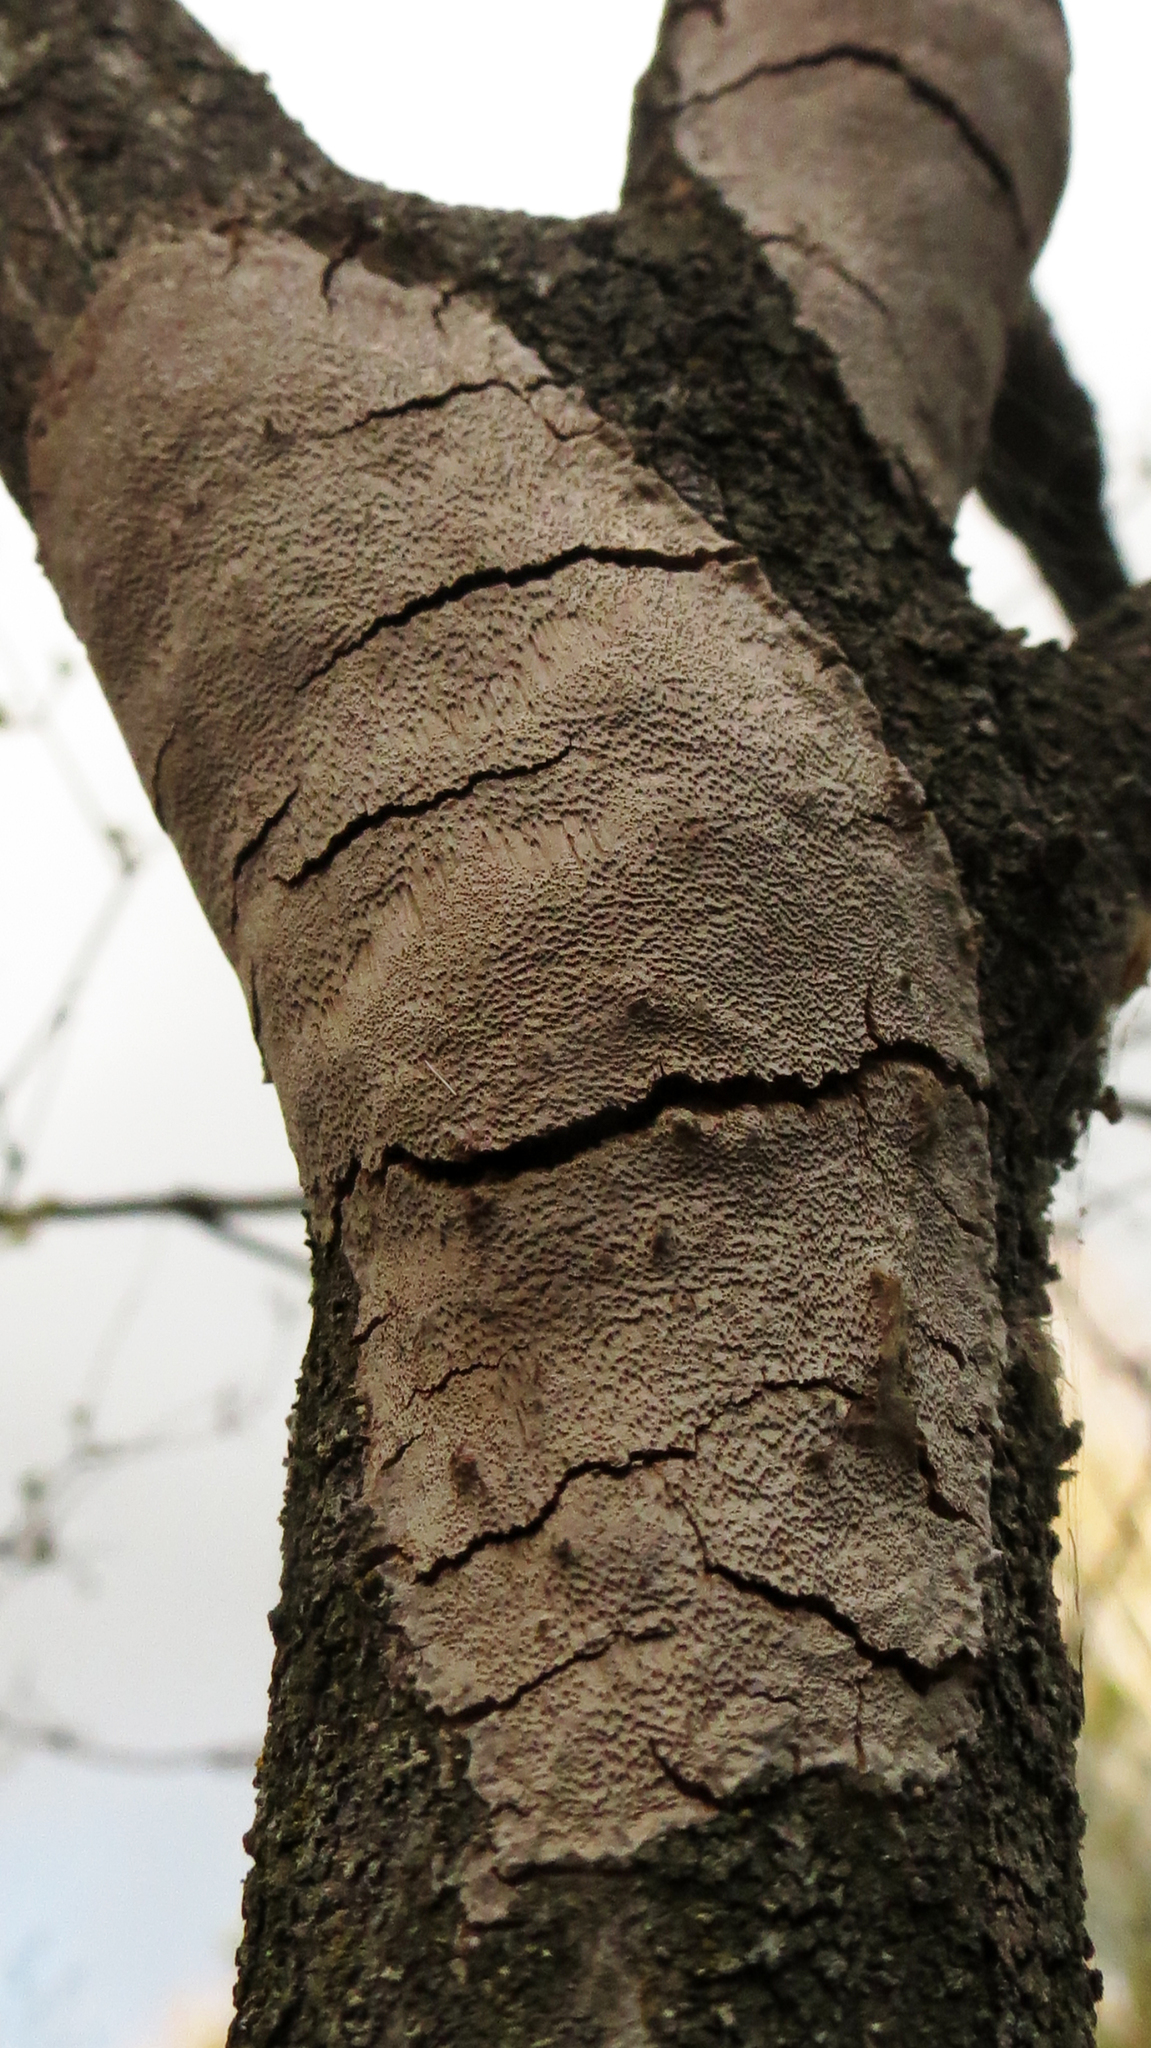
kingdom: Fungi
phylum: Basidiomycota
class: Agaricomycetes
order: Hymenochaetales
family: Hymenochaetaceae
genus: Fomitiporia
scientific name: Fomitiporia punctata
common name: Elbowpatch crust
